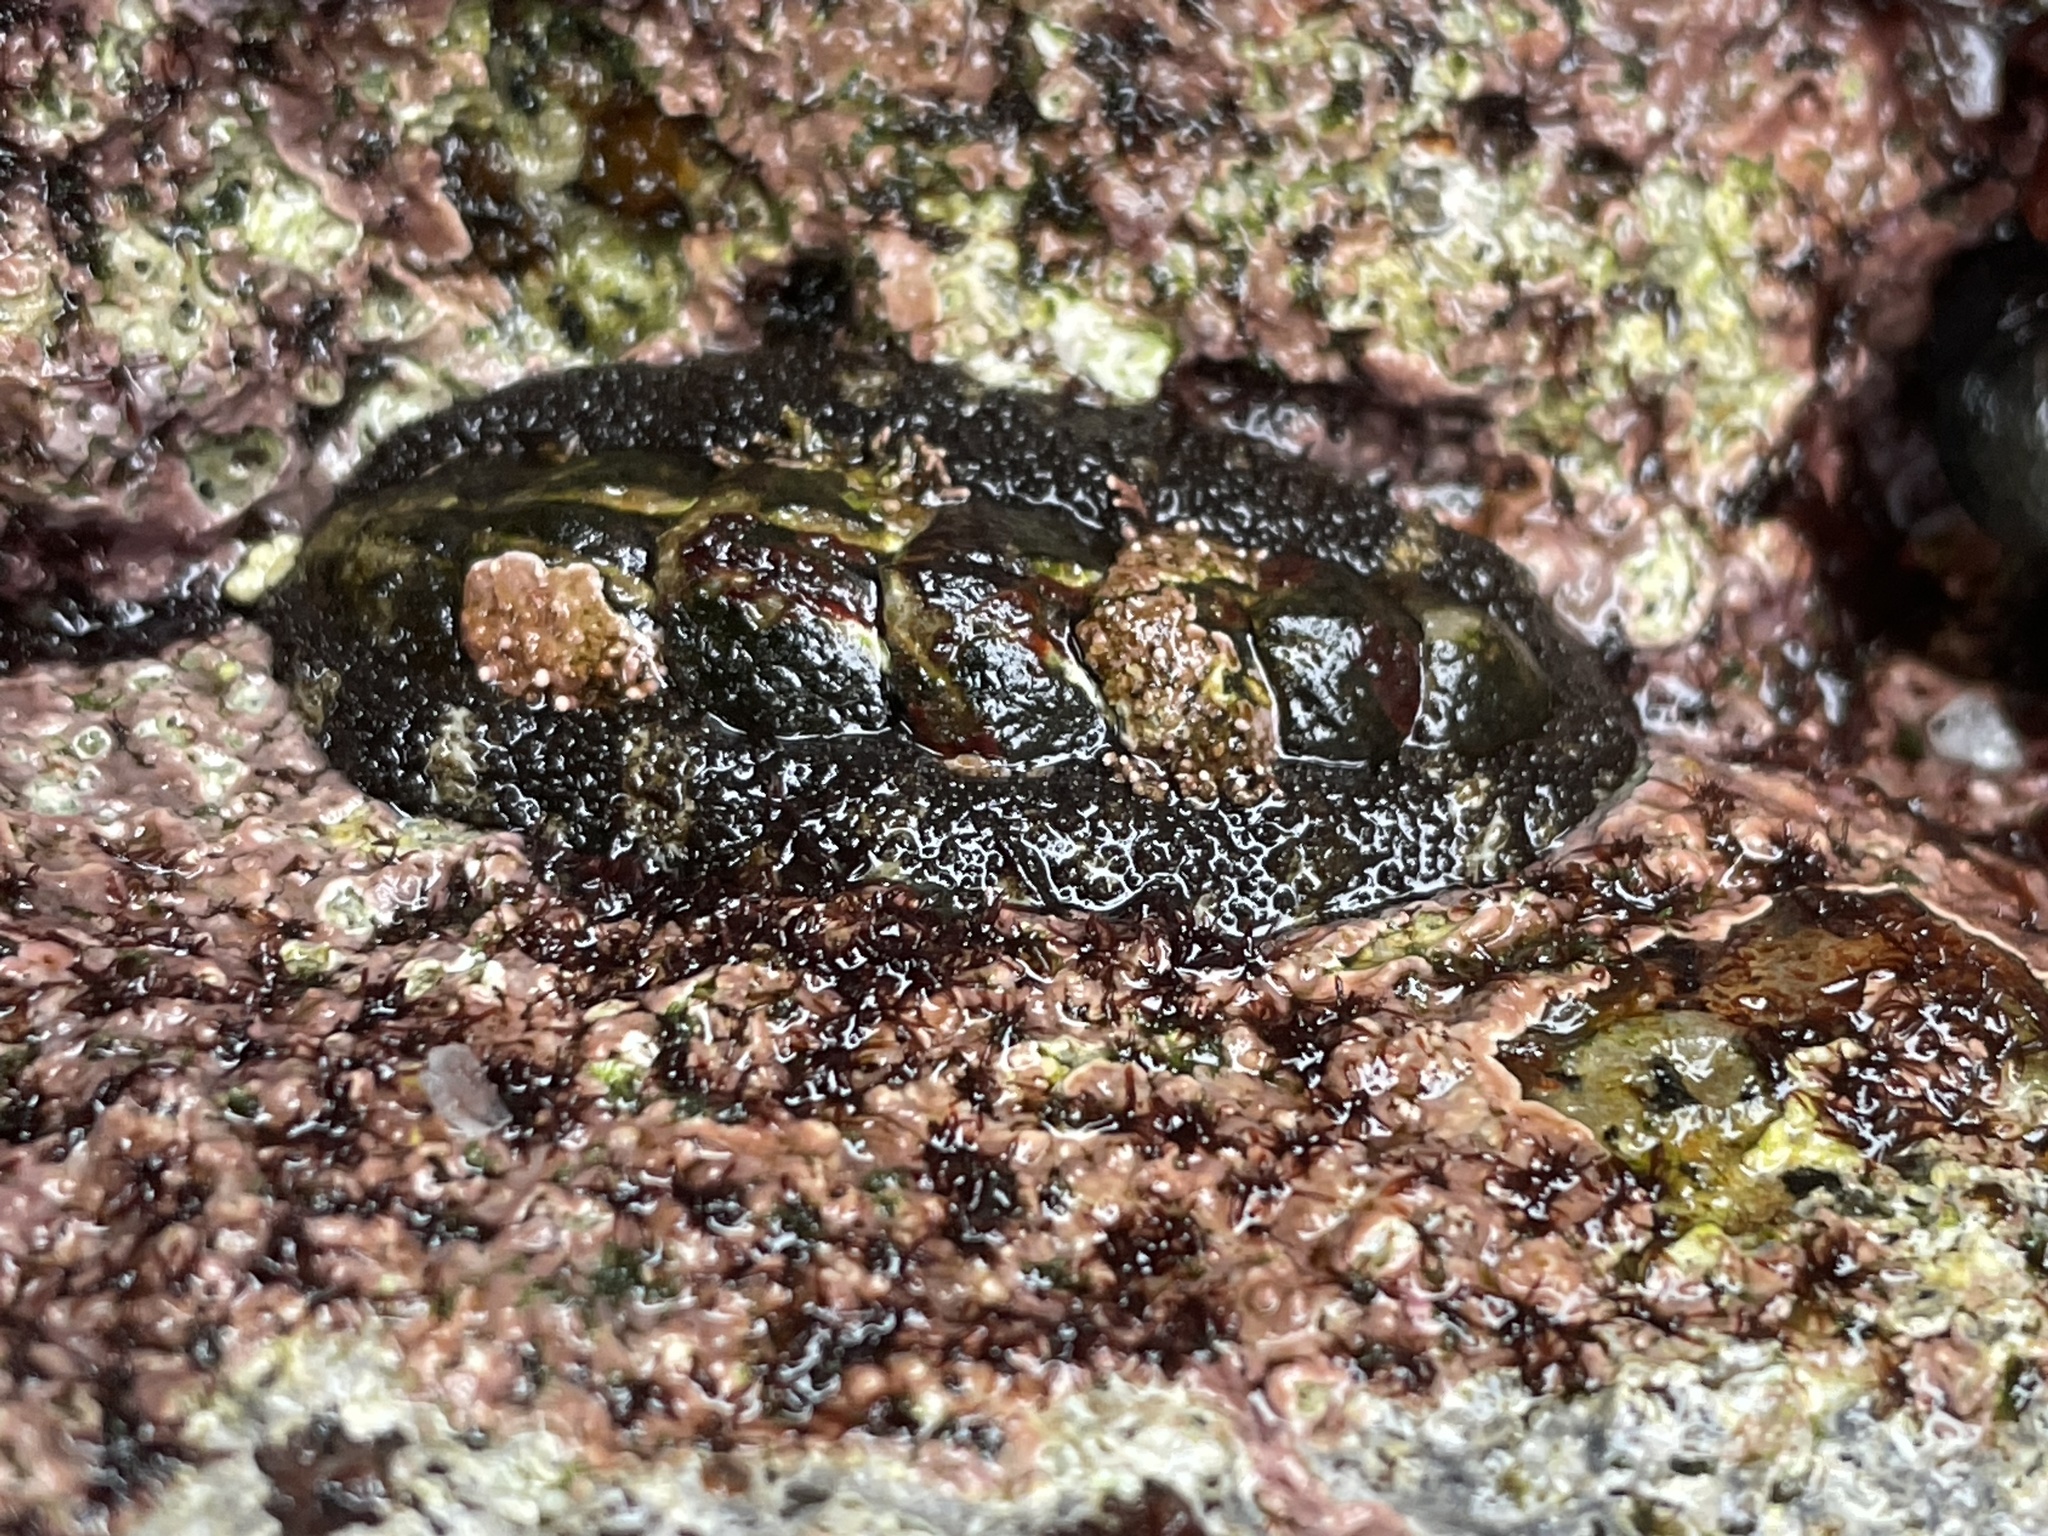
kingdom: Animalia
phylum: Mollusca
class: Polyplacophora
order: Chitonida
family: Tonicellidae
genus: Nuttallina
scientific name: Nuttallina californica
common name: California nuttall chiton
